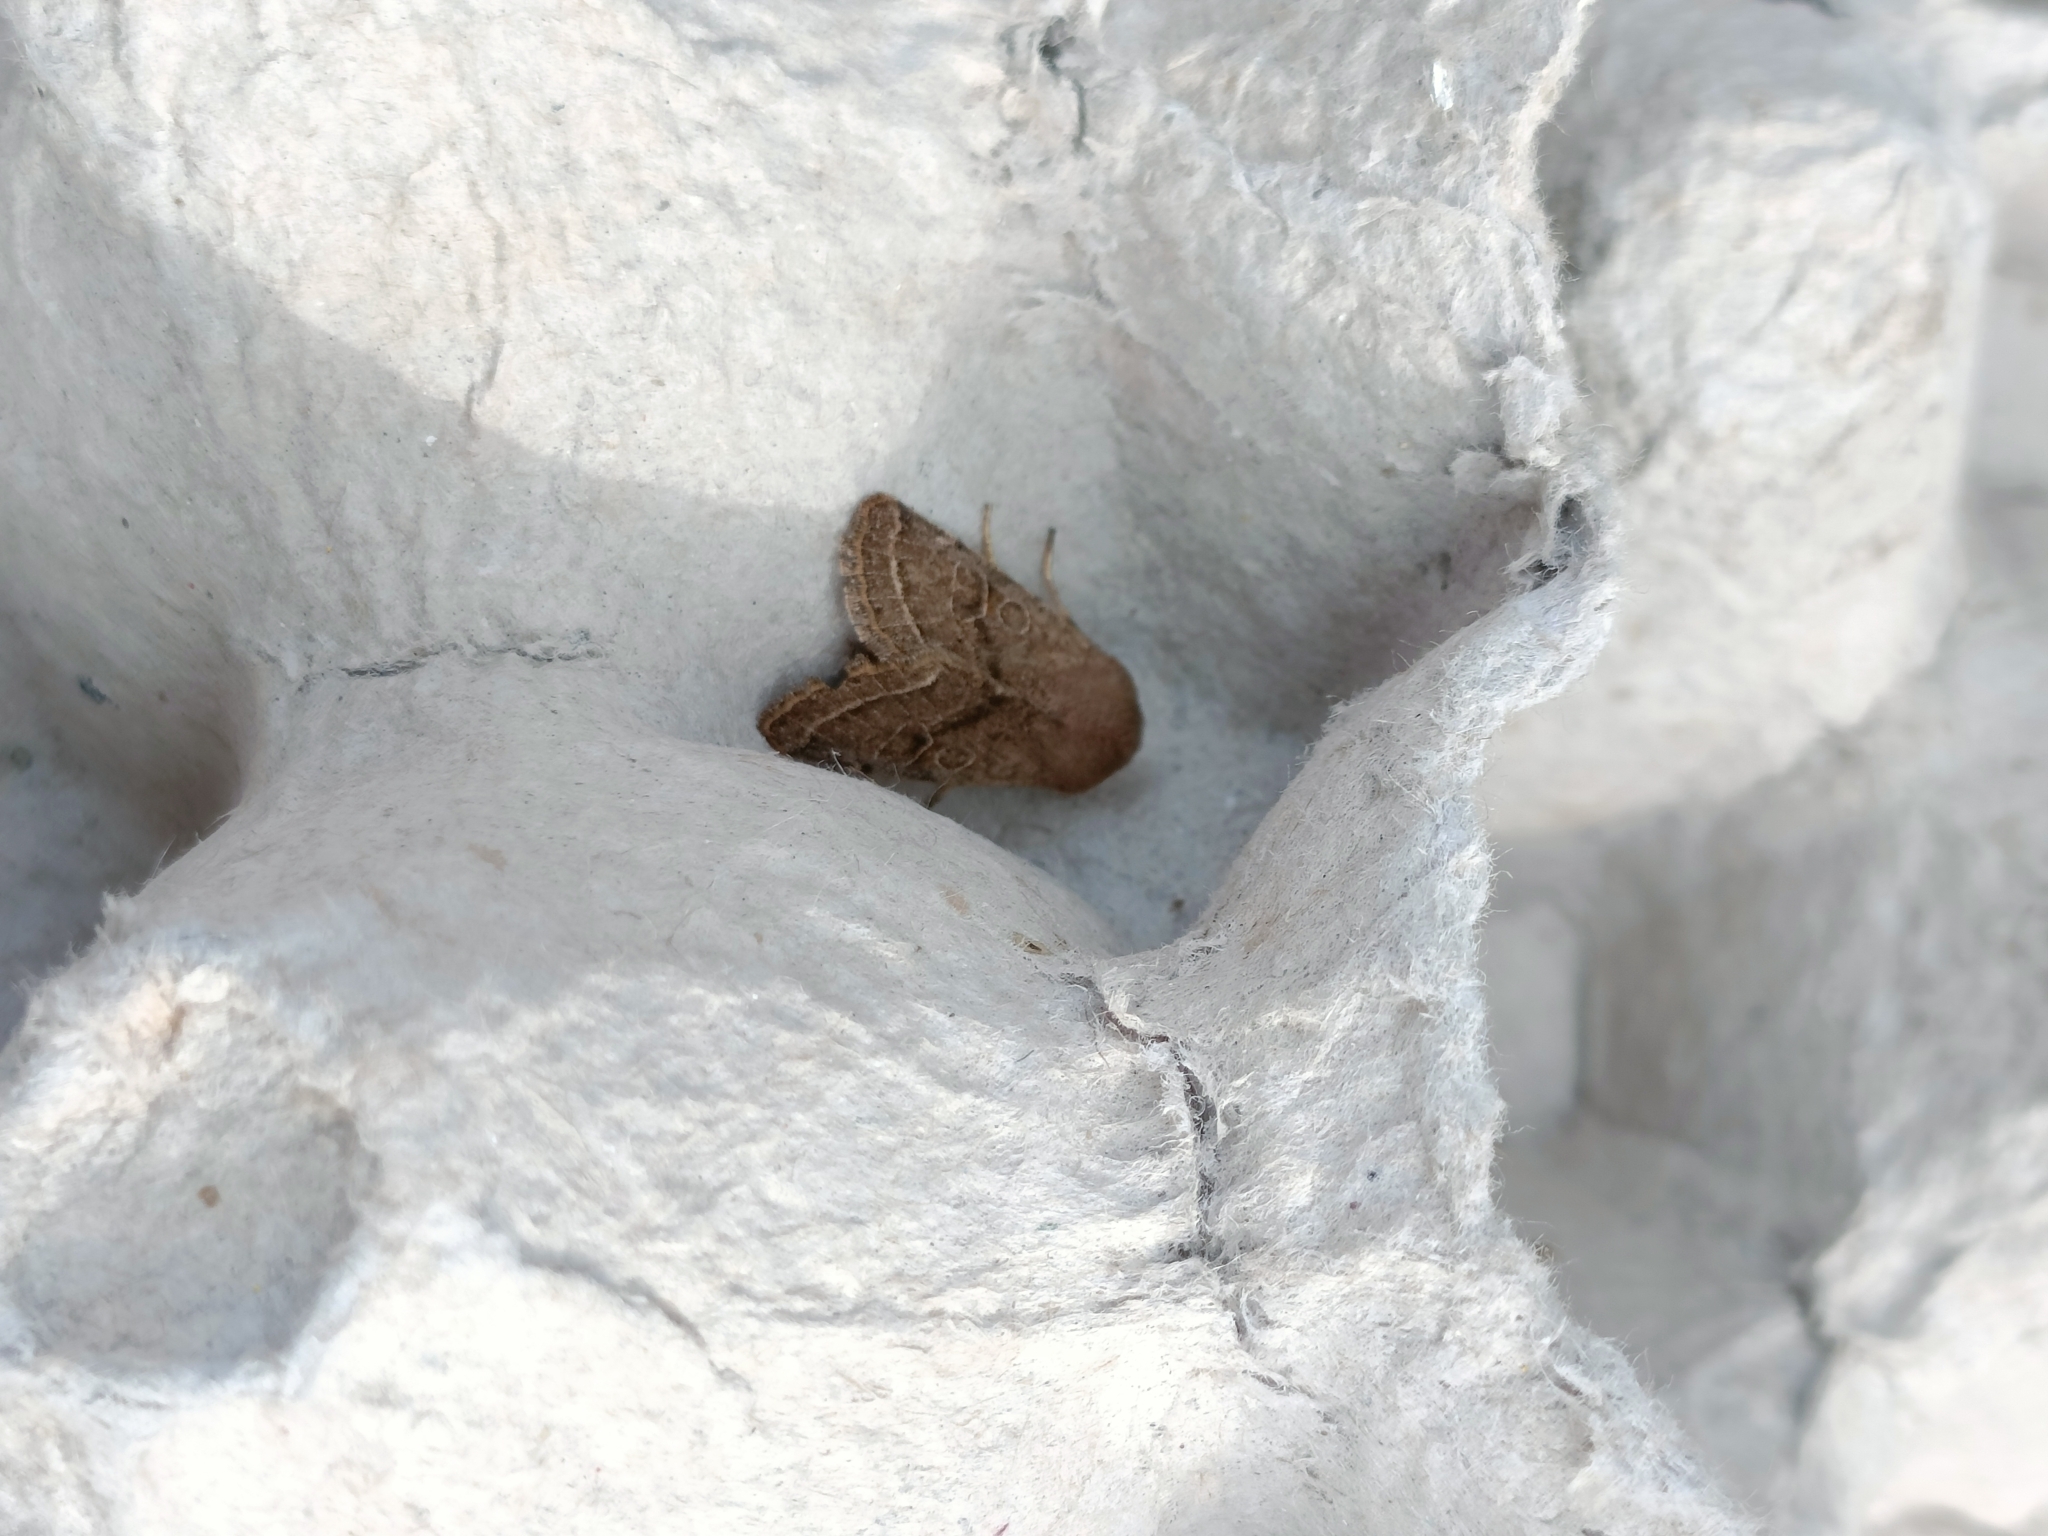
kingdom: Animalia
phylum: Arthropoda
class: Insecta
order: Lepidoptera
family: Noctuidae
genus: Orthosia
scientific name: Orthosia cerasi
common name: Common quaker
